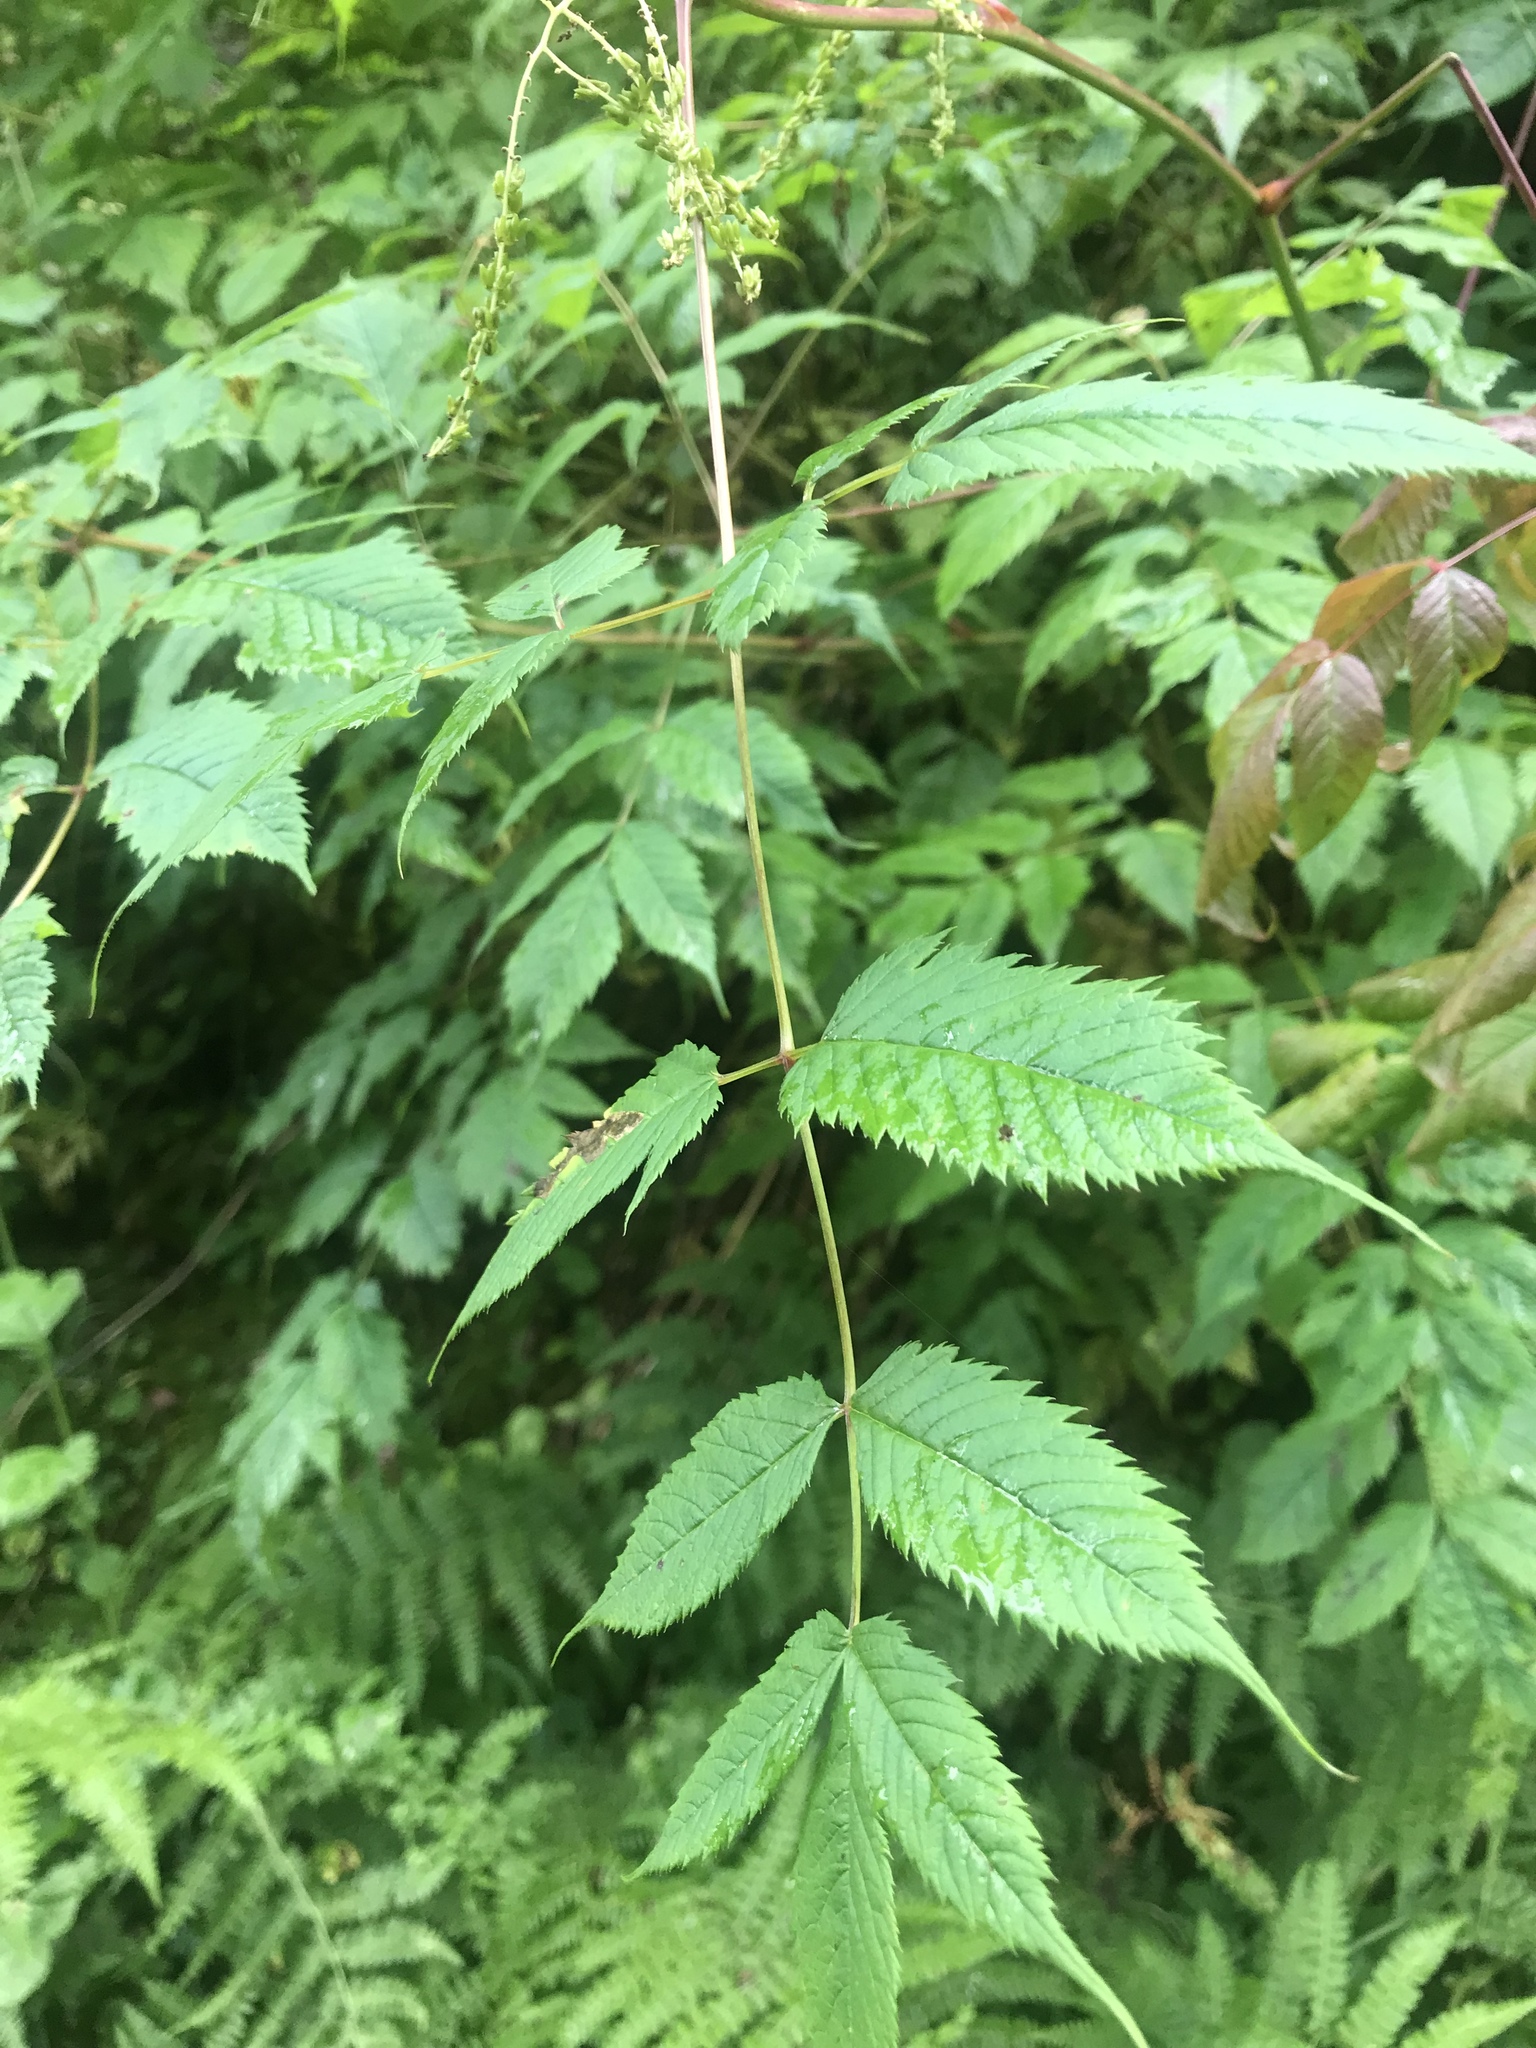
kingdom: Plantae
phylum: Tracheophyta
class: Magnoliopsida
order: Rosales
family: Rosaceae
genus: Aruncus
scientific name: Aruncus dioicus
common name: Buck's-beard
